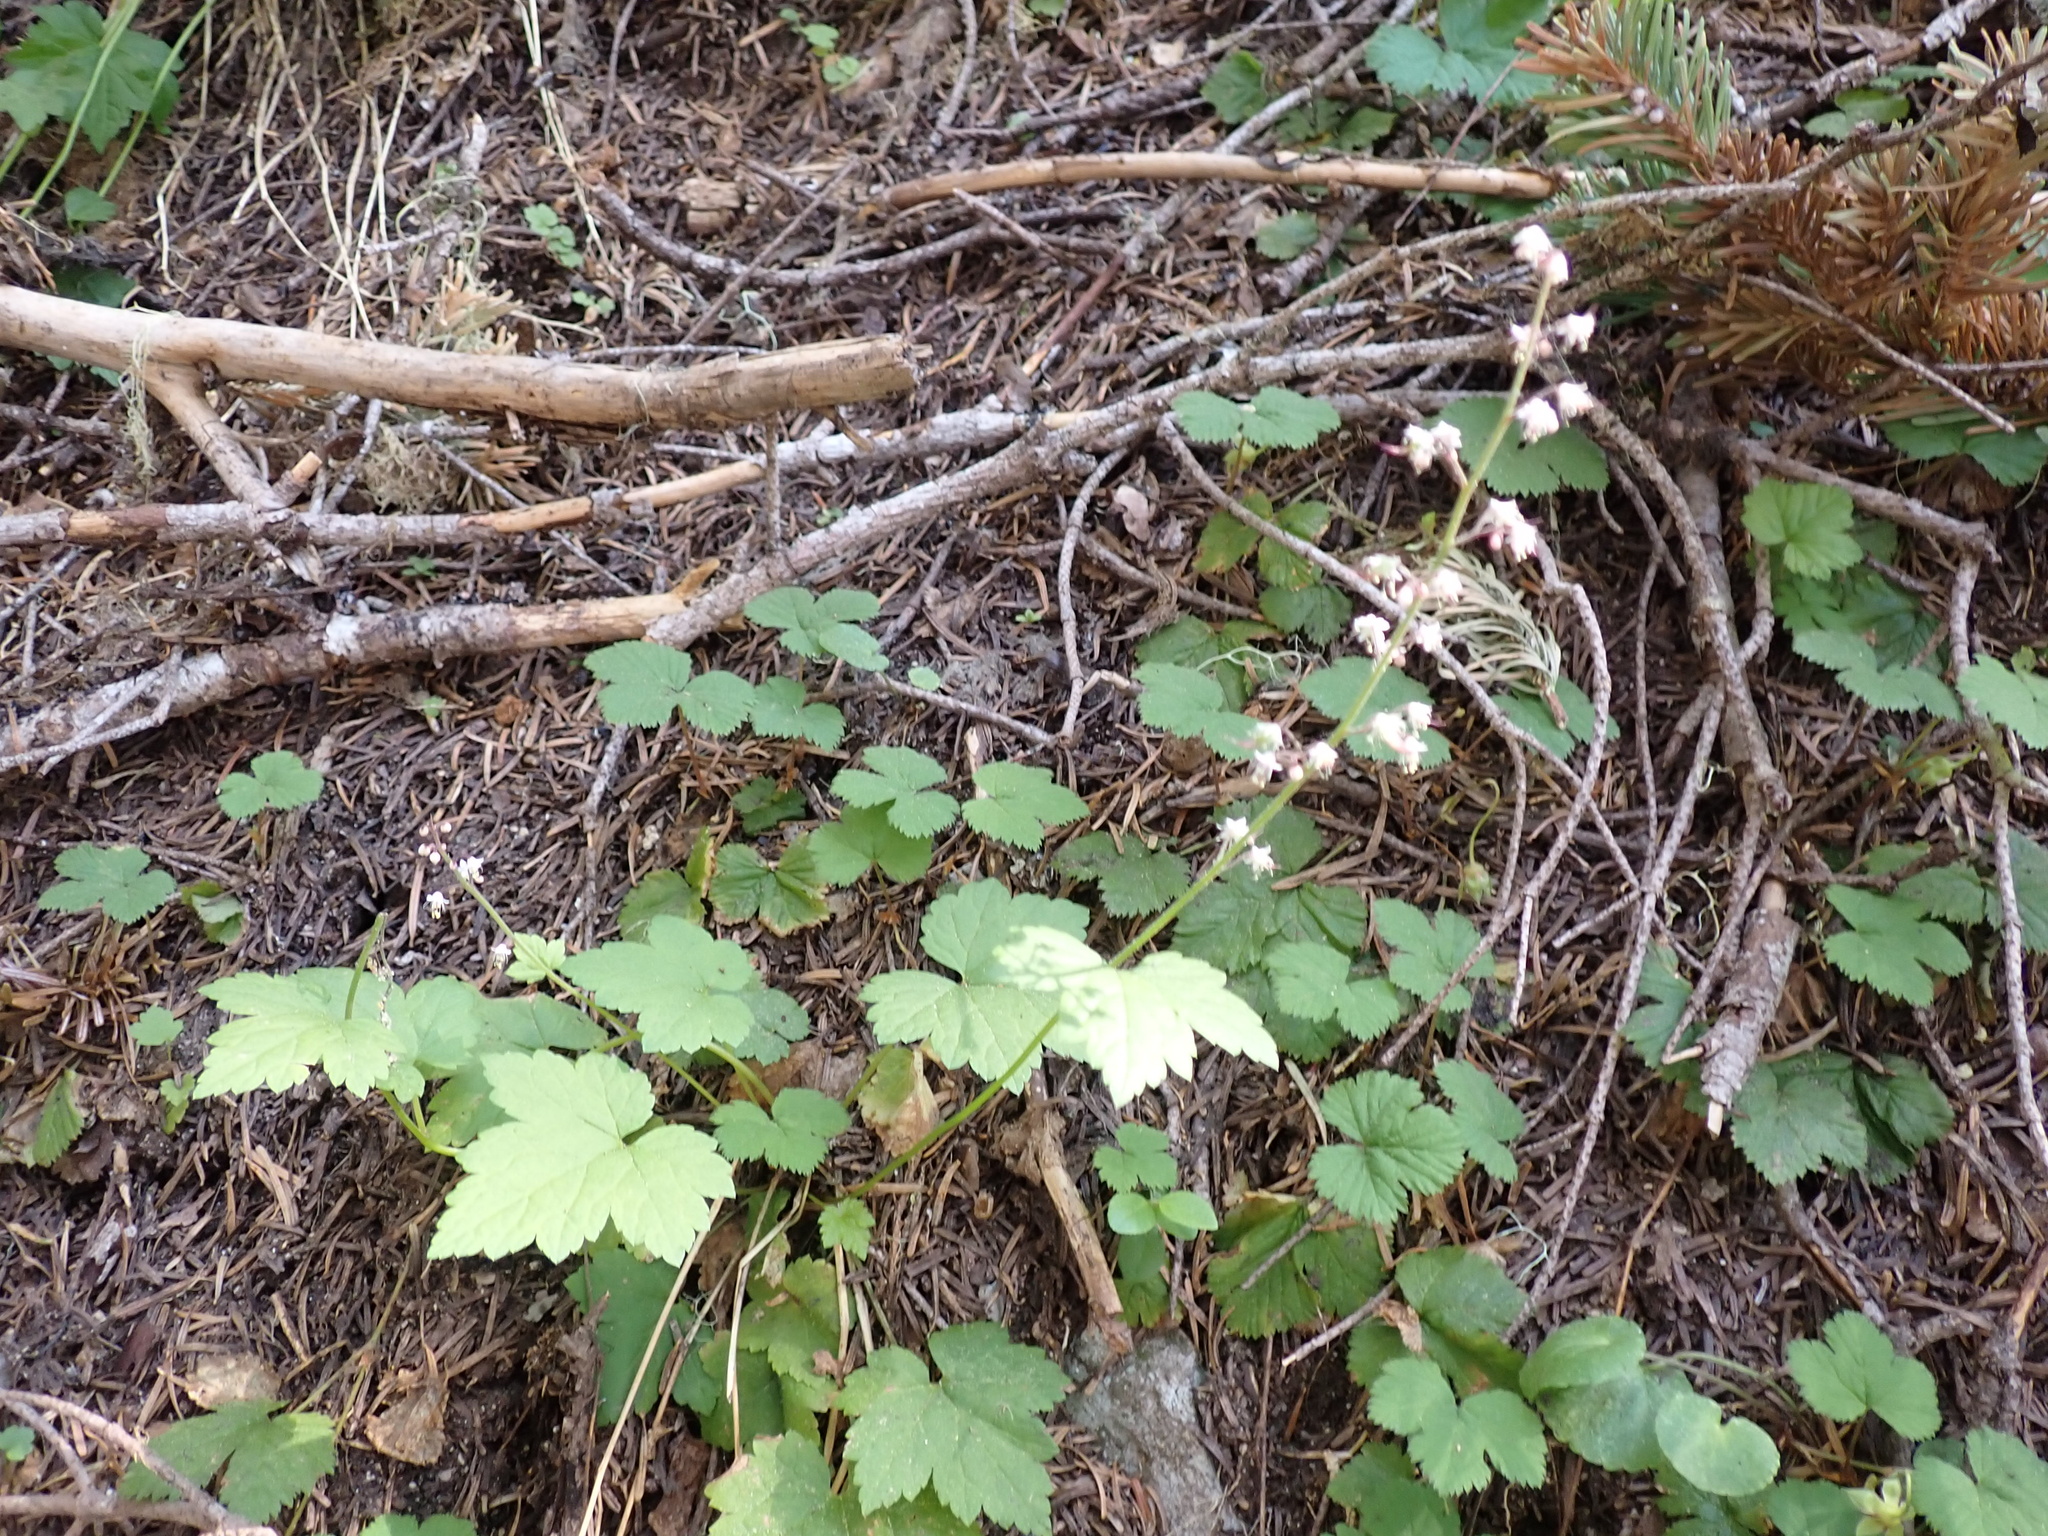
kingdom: Plantae
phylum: Tracheophyta
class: Magnoliopsida
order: Saxifragales
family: Saxifragaceae
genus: Tiarella
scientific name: Tiarella trifoliata
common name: Sugar-scoop
